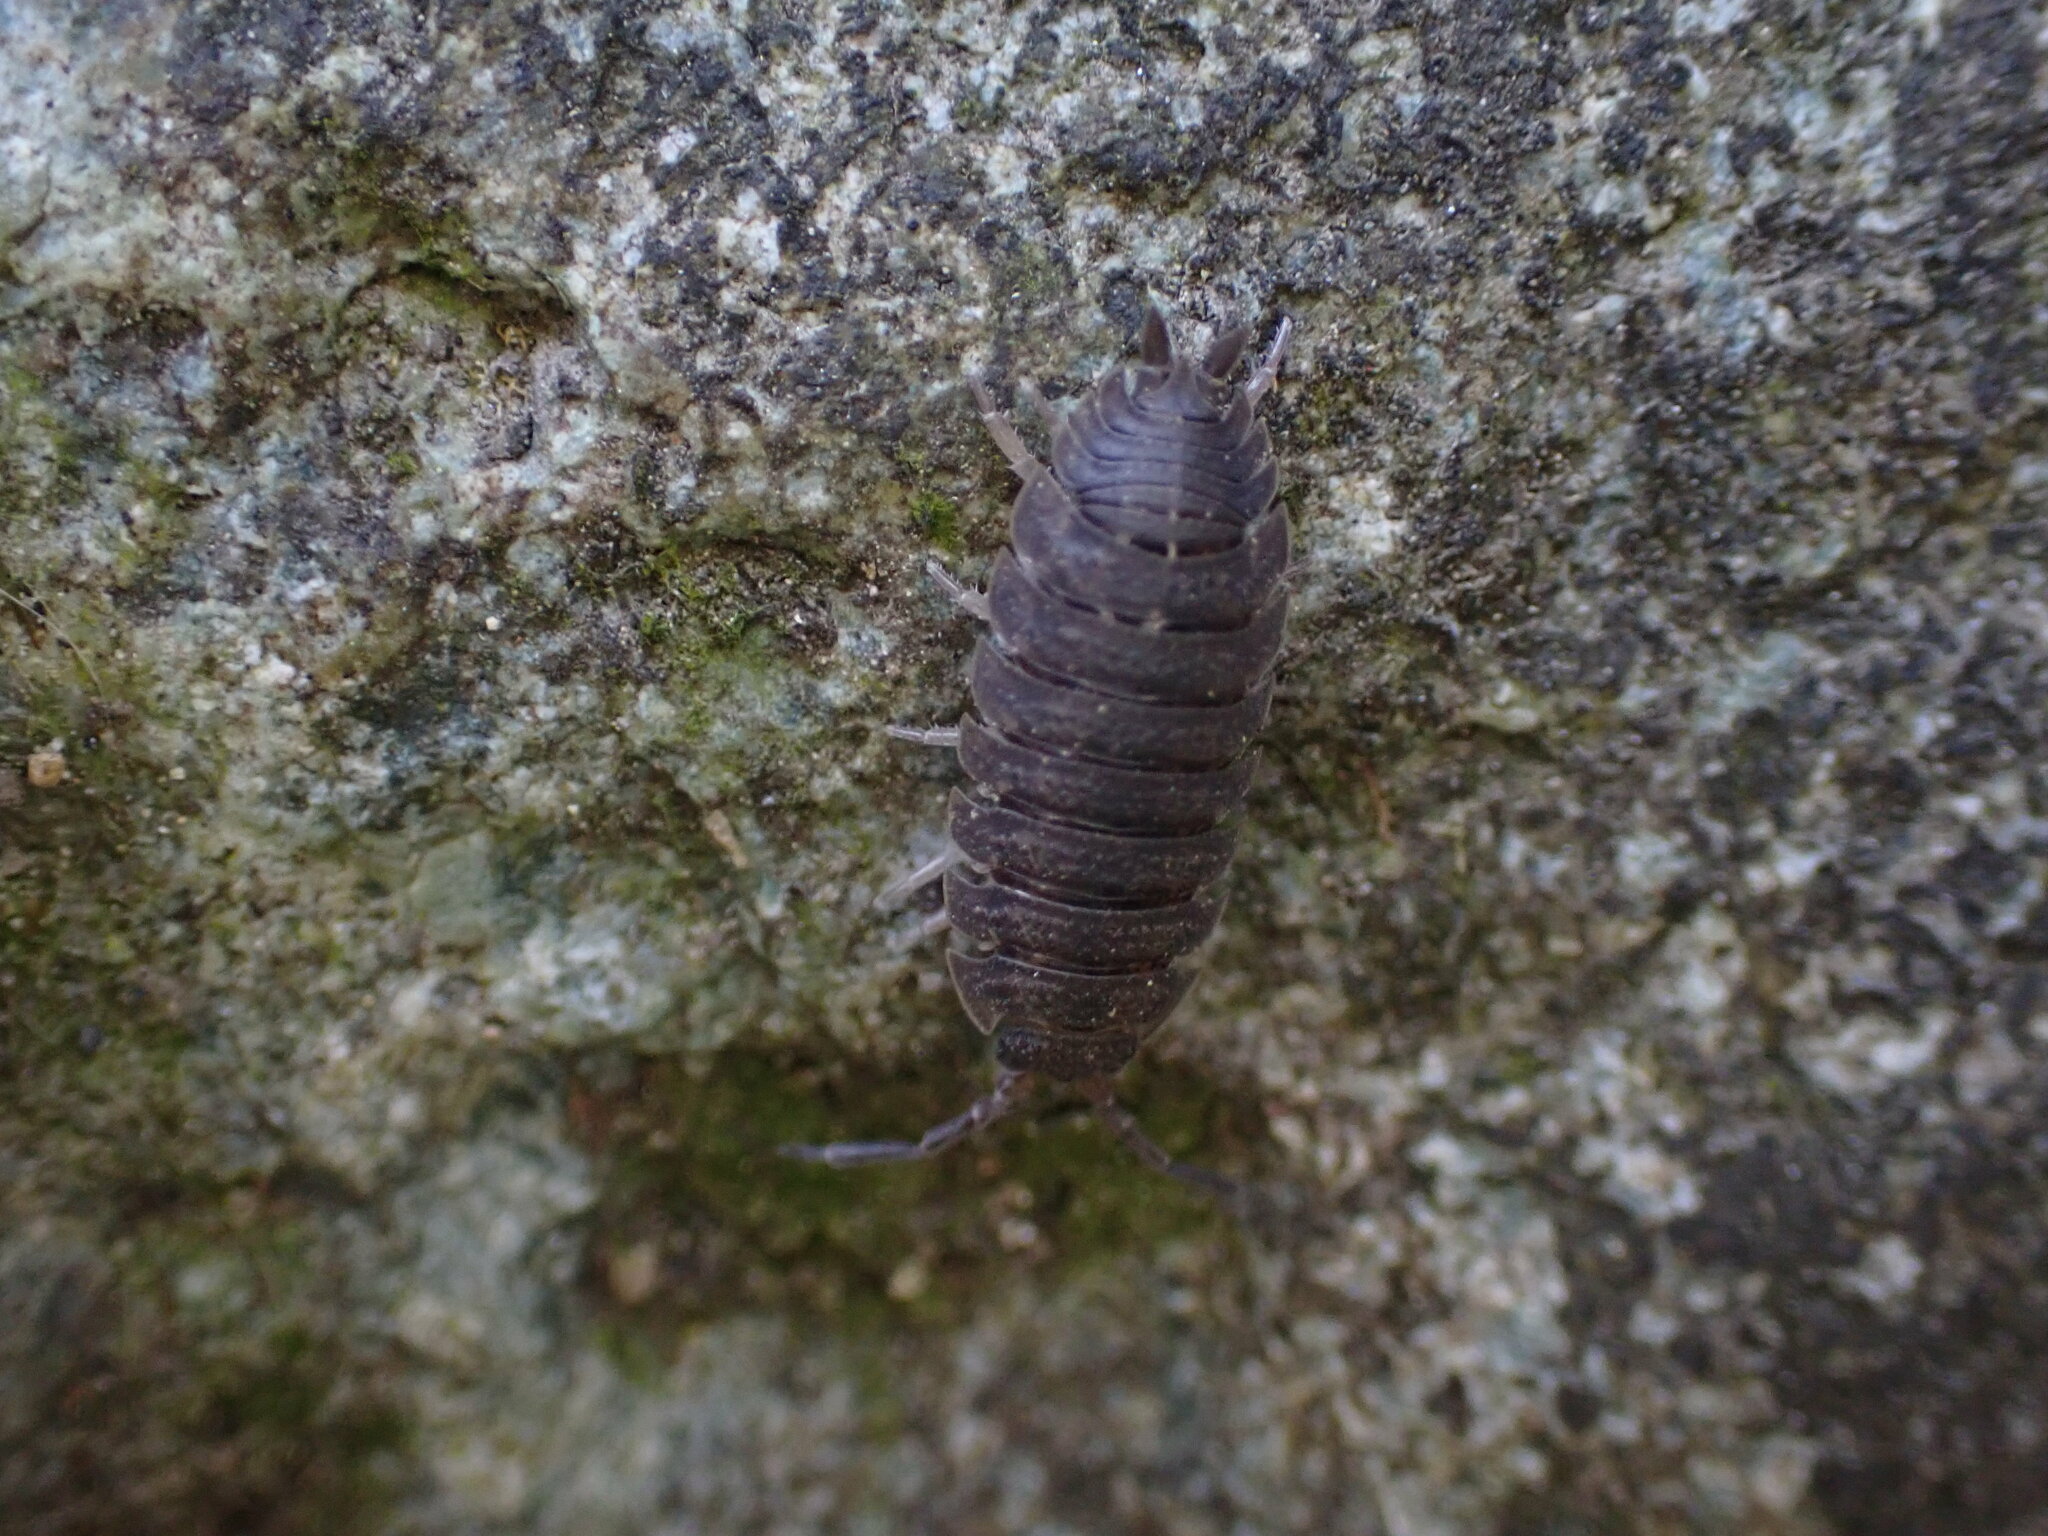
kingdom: Animalia
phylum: Arthropoda
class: Malacostraca
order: Isopoda
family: Porcellionidae
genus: Porcellio
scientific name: Porcellio scaber
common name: Common rough woodlouse
